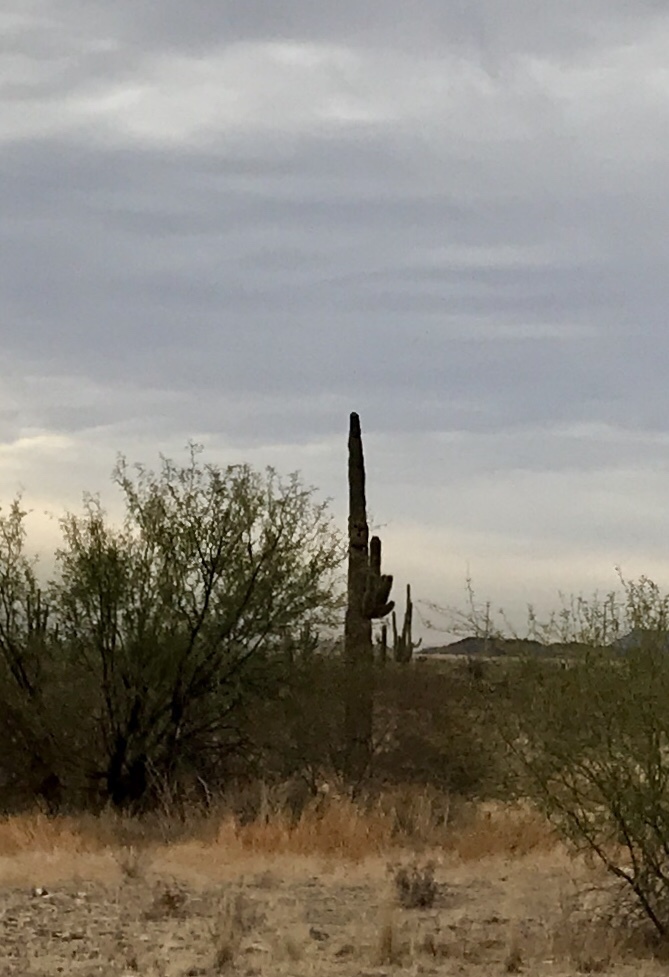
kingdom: Plantae
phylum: Tracheophyta
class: Magnoliopsida
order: Caryophyllales
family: Cactaceae
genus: Carnegiea
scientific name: Carnegiea gigantea
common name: Saguaro
